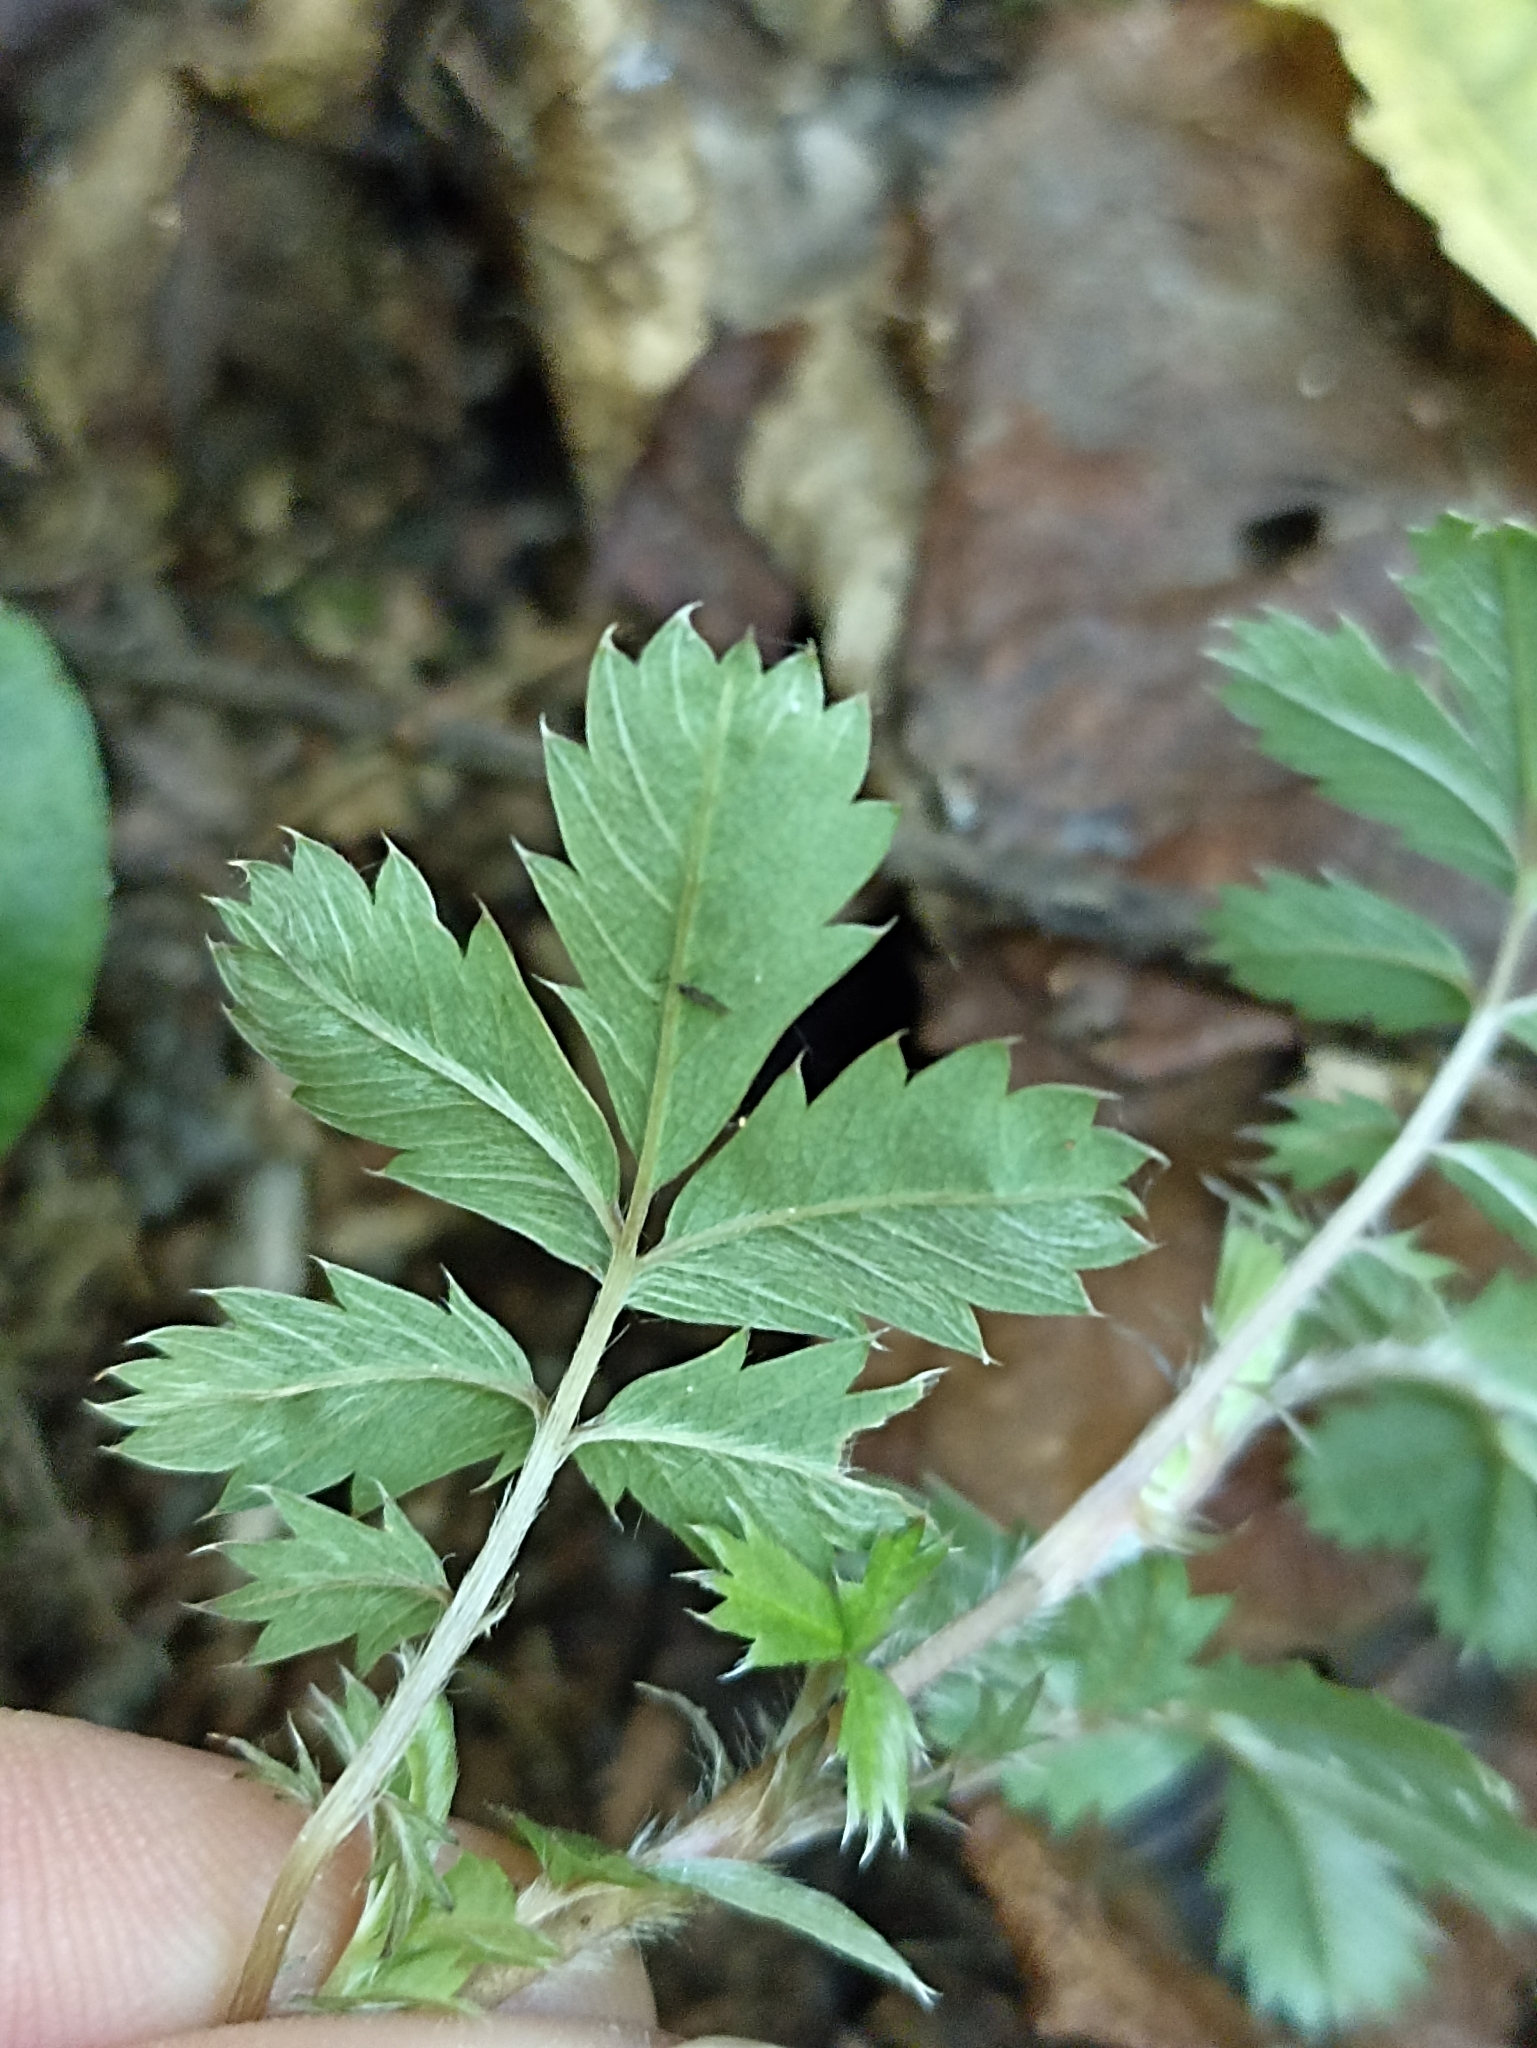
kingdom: Plantae
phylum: Tracheophyta
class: Magnoliopsida
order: Rosales
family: Rosaceae
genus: Acaena
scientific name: Acaena anserinifolia
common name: Bronze pirri-pirri-bur
